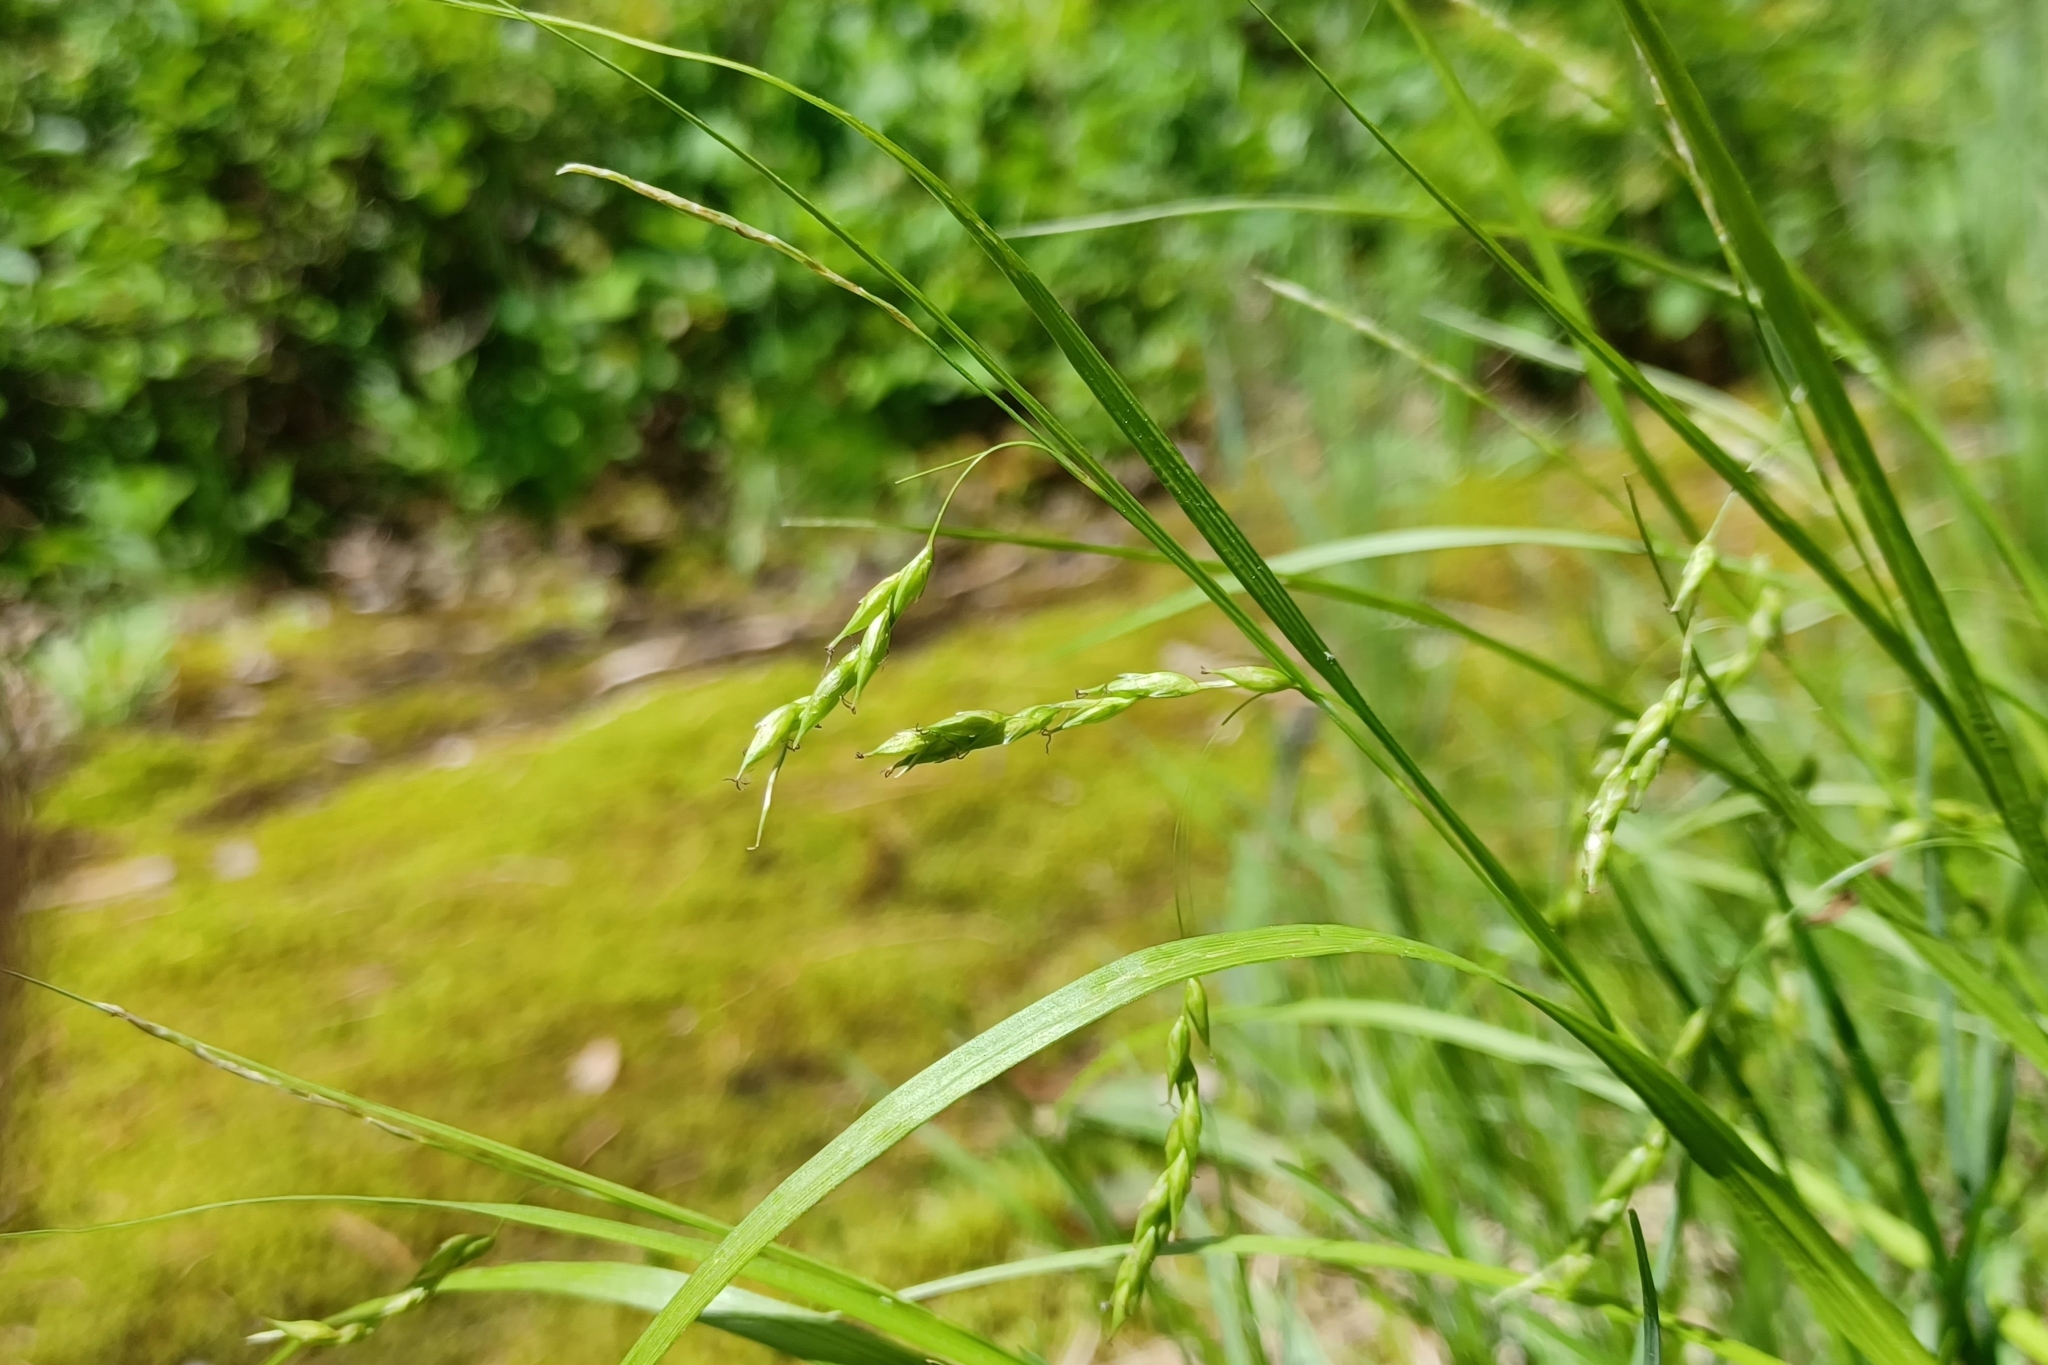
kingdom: Plantae
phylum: Tracheophyta
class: Liliopsida
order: Poales
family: Cyperaceae
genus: Carex
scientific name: Carex debilis
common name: White-edge sedge
